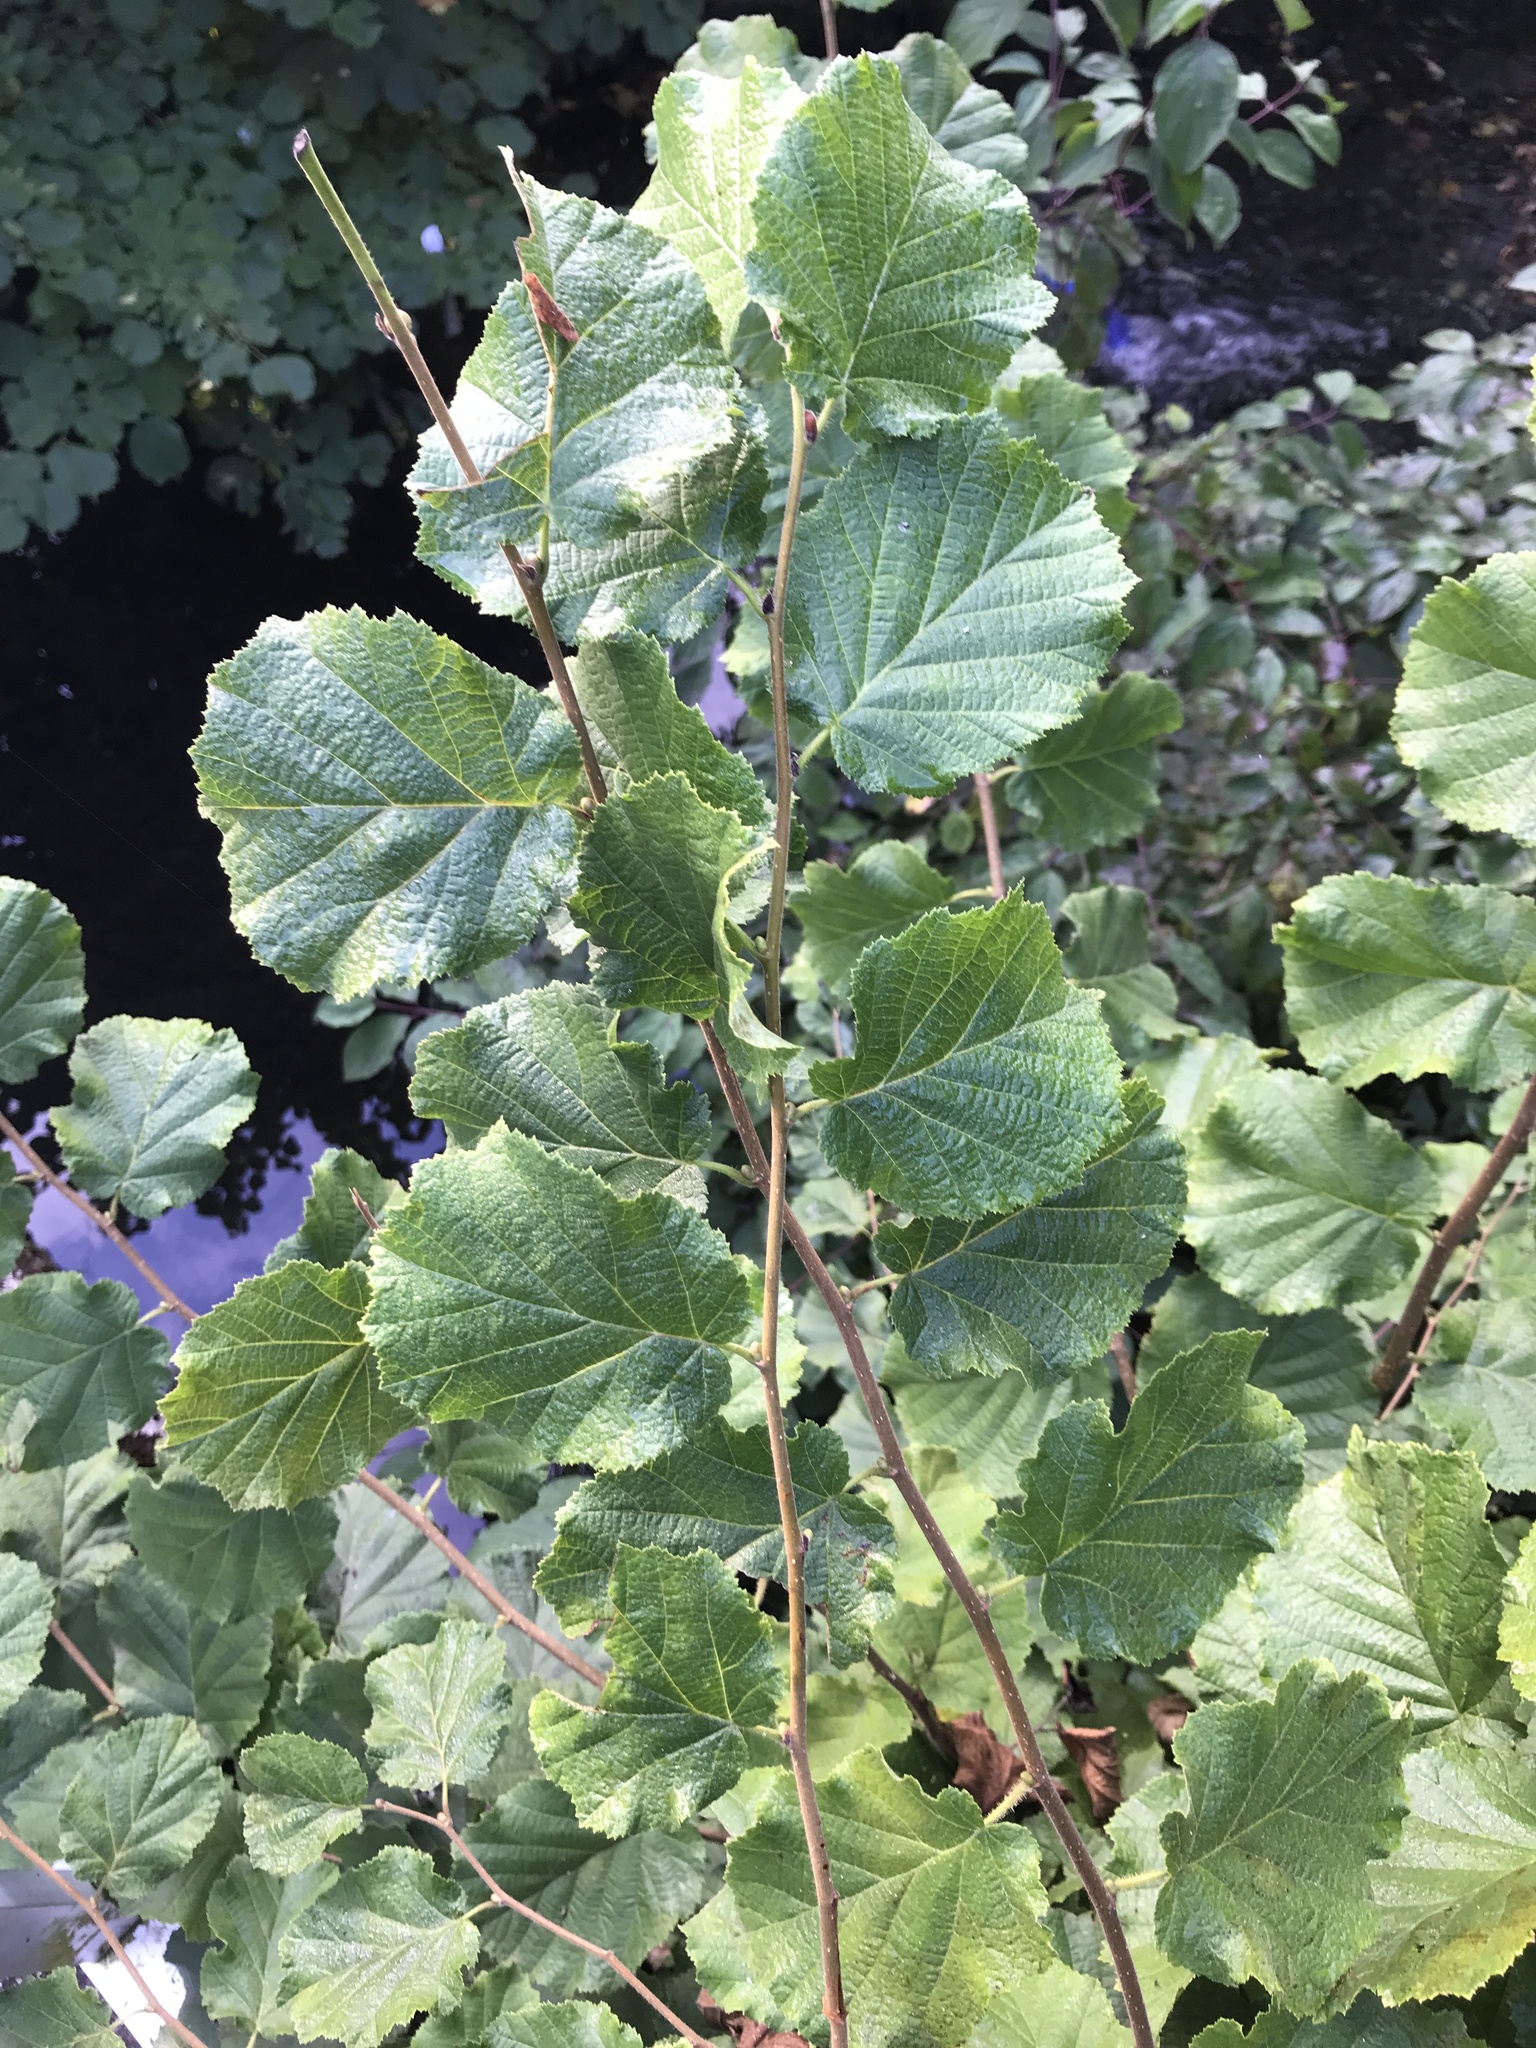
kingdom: Plantae
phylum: Tracheophyta
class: Magnoliopsida
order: Fagales
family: Betulaceae
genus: Corylus
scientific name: Corylus avellana
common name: European hazel
